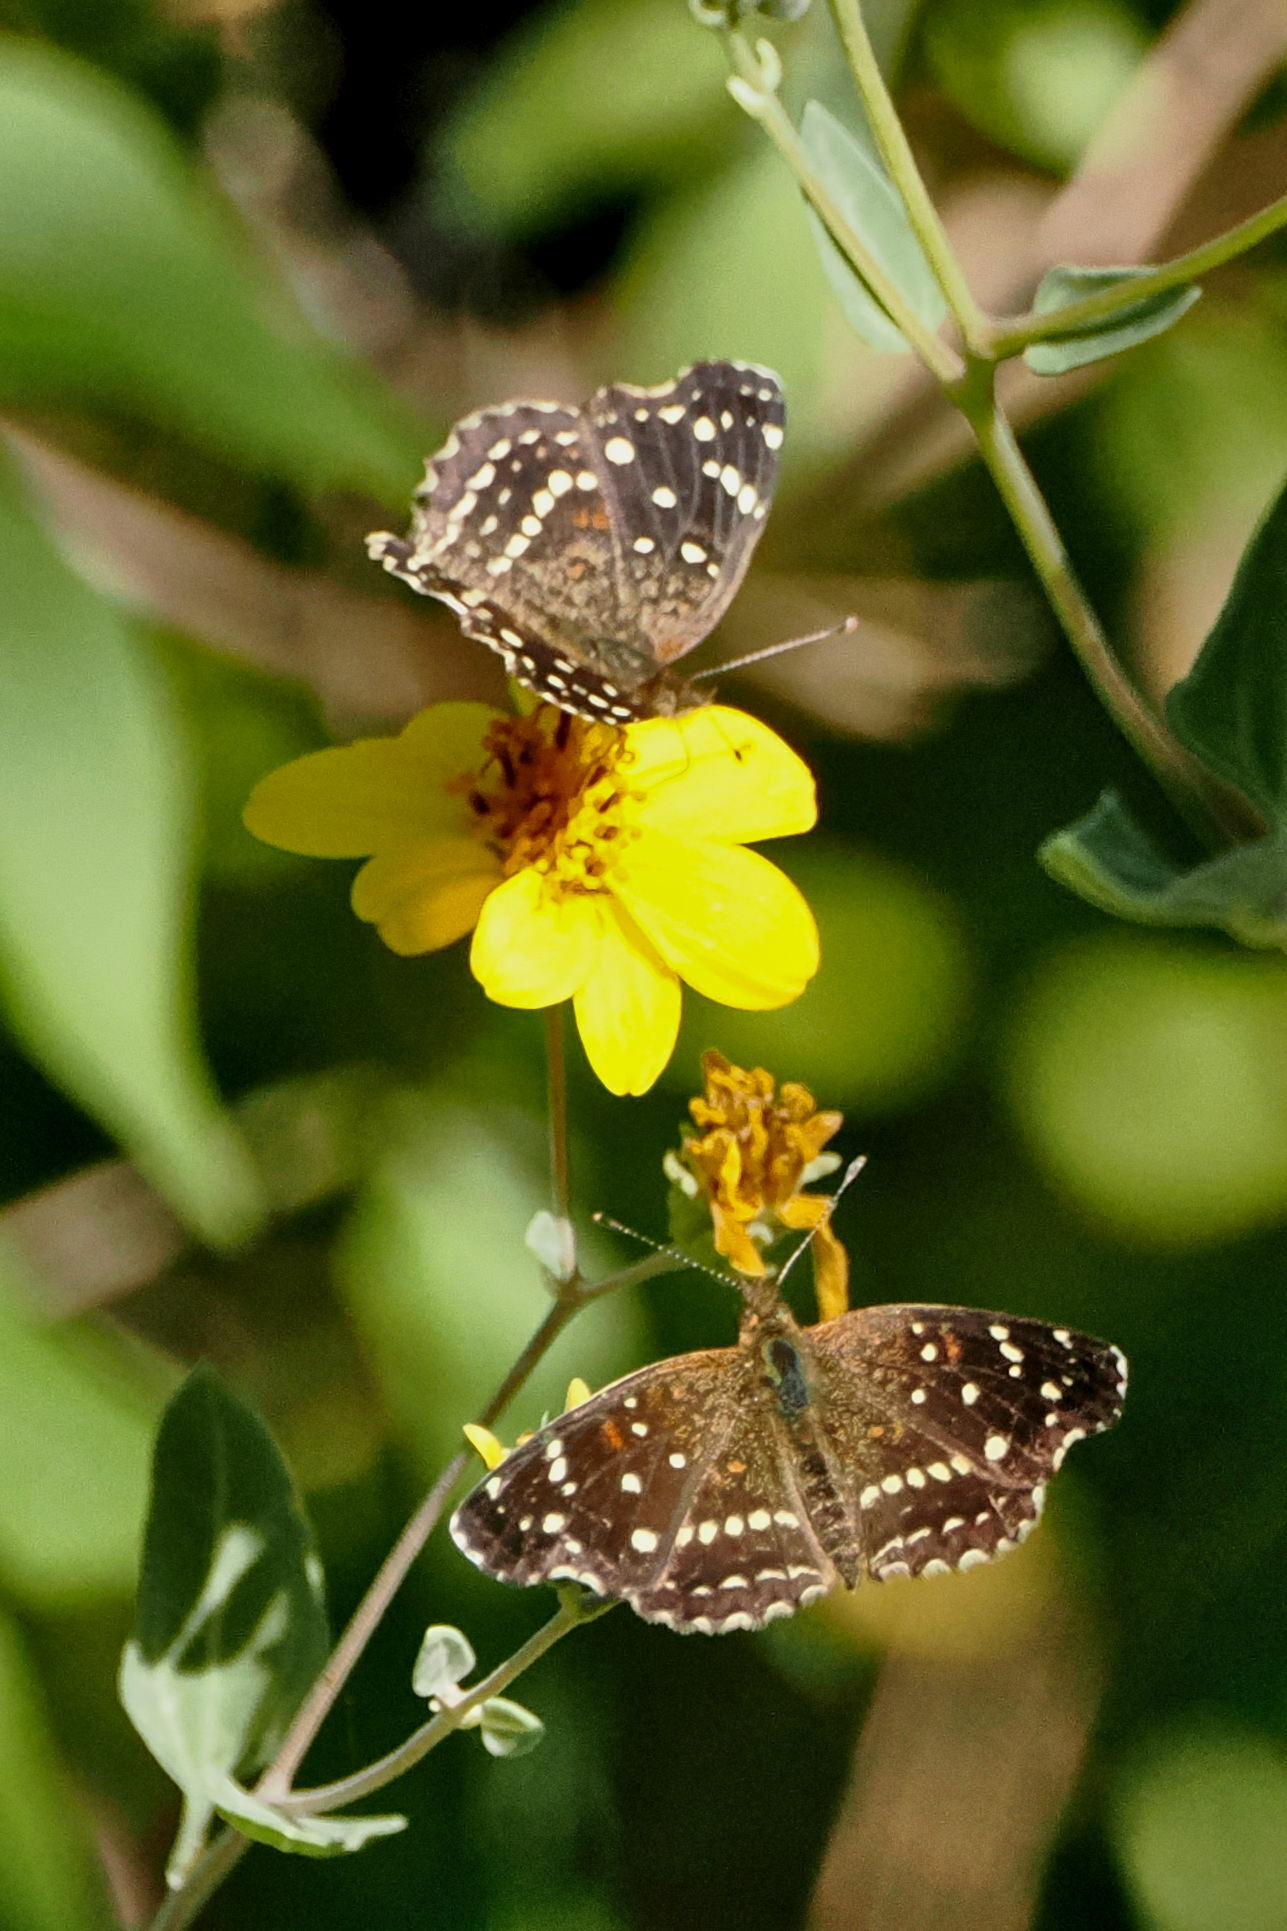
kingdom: Animalia
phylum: Arthropoda
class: Insecta
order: Lepidoptera
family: Nymphalidae
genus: Anthanassa
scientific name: Anthanassa texana
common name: Texan crescent
